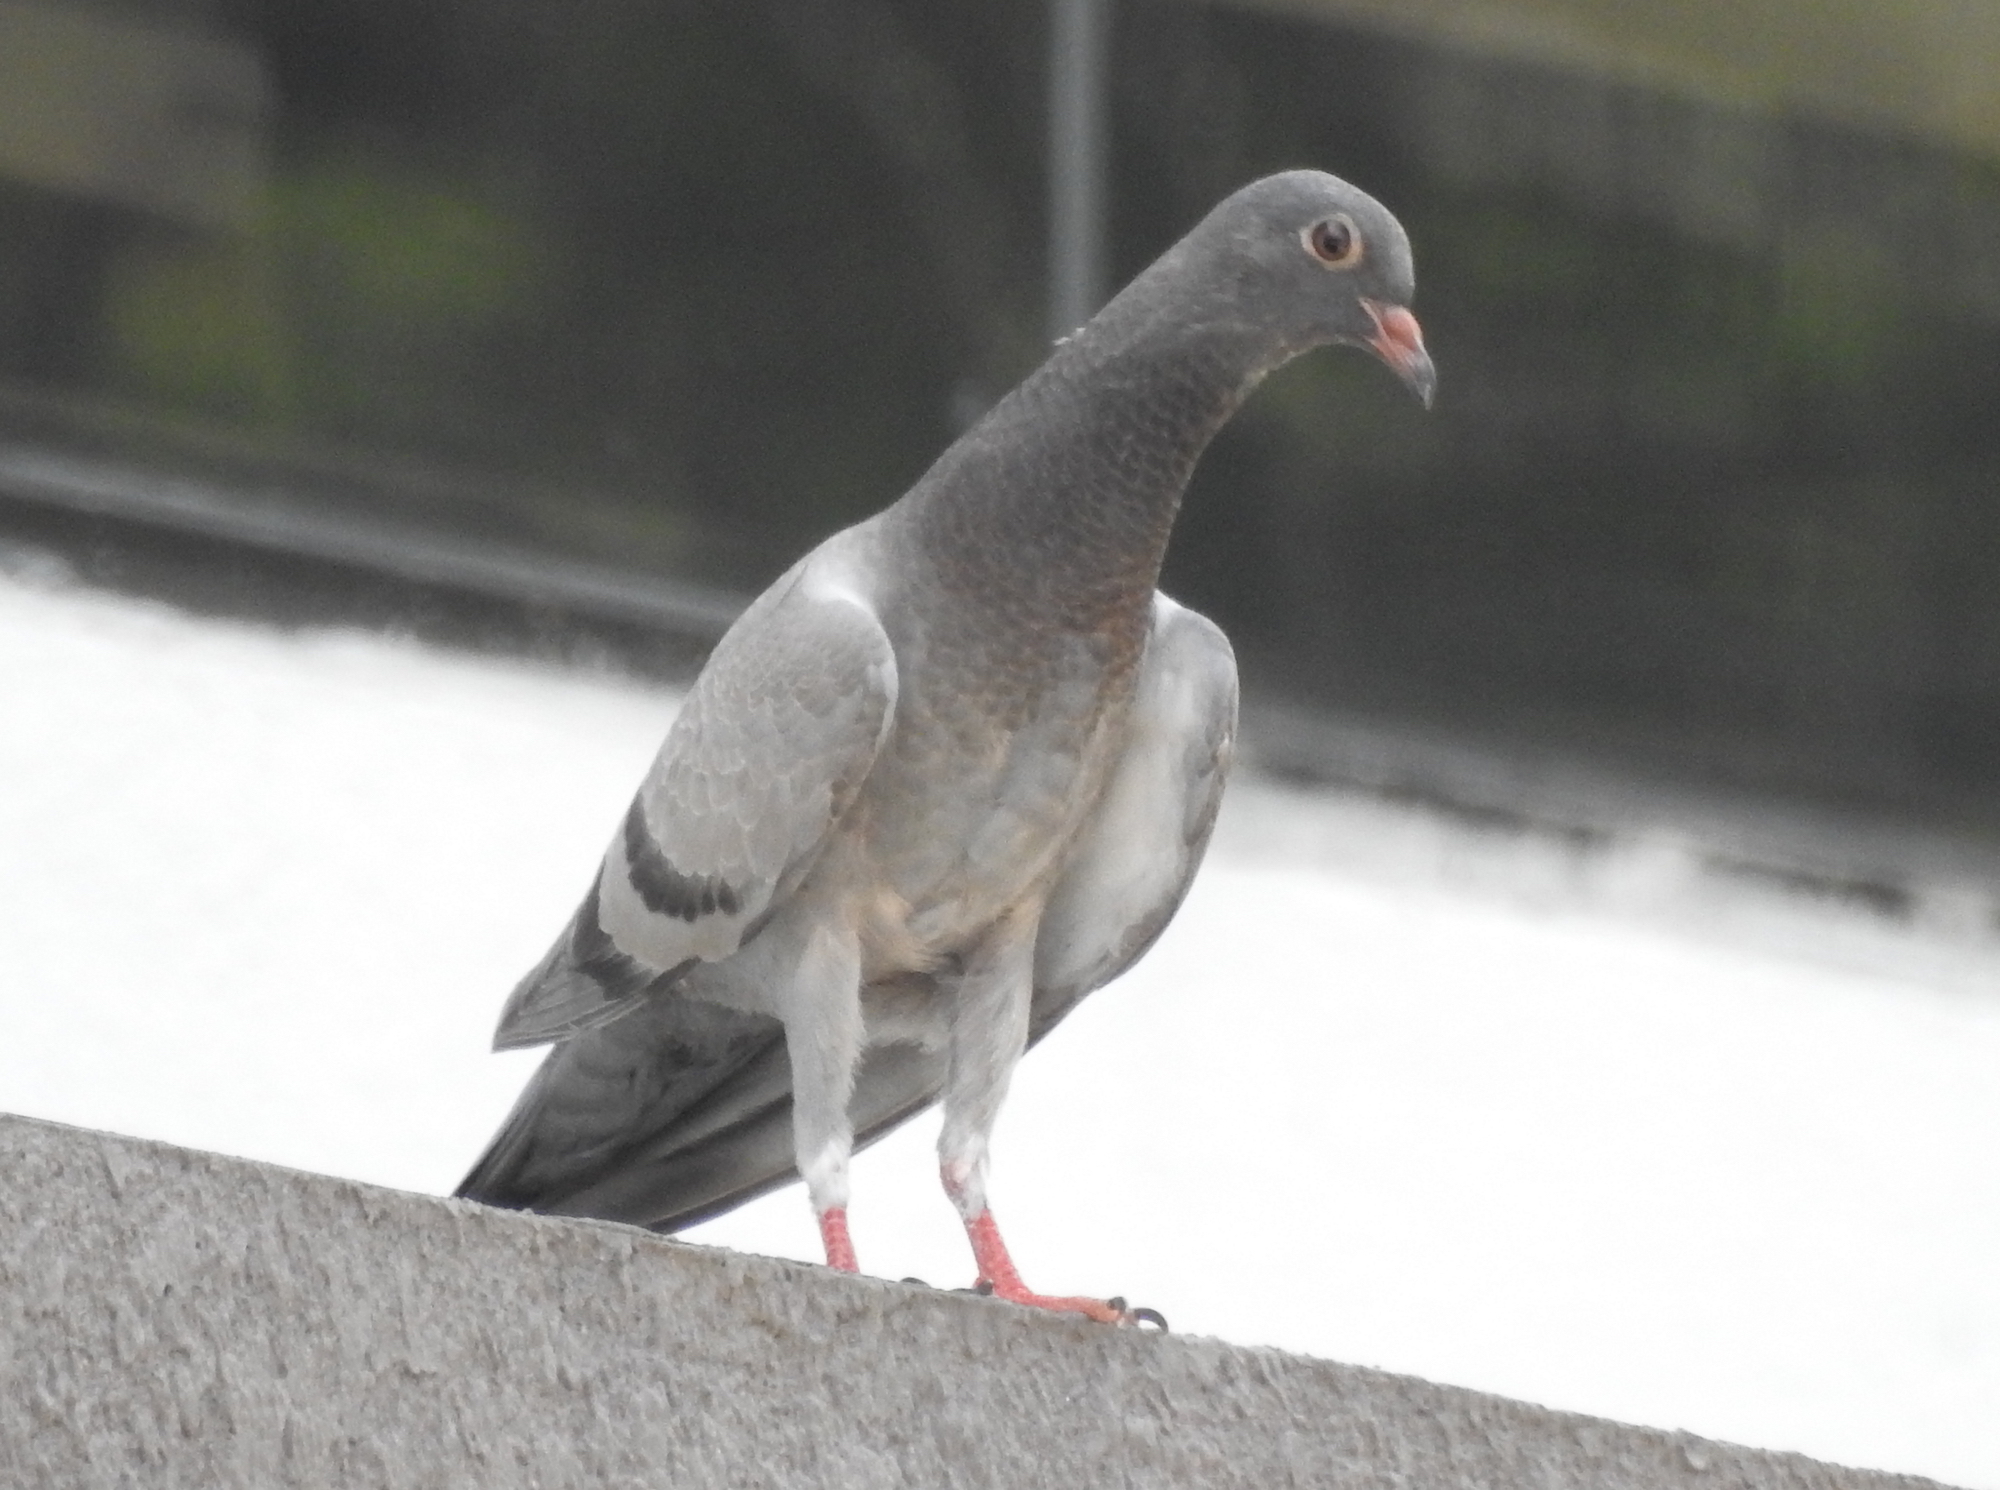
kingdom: Animalia
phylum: Chordata
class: Aves
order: Columbiformes
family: Columbidae
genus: Columba
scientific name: Columba livia
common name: Rock pigeon
